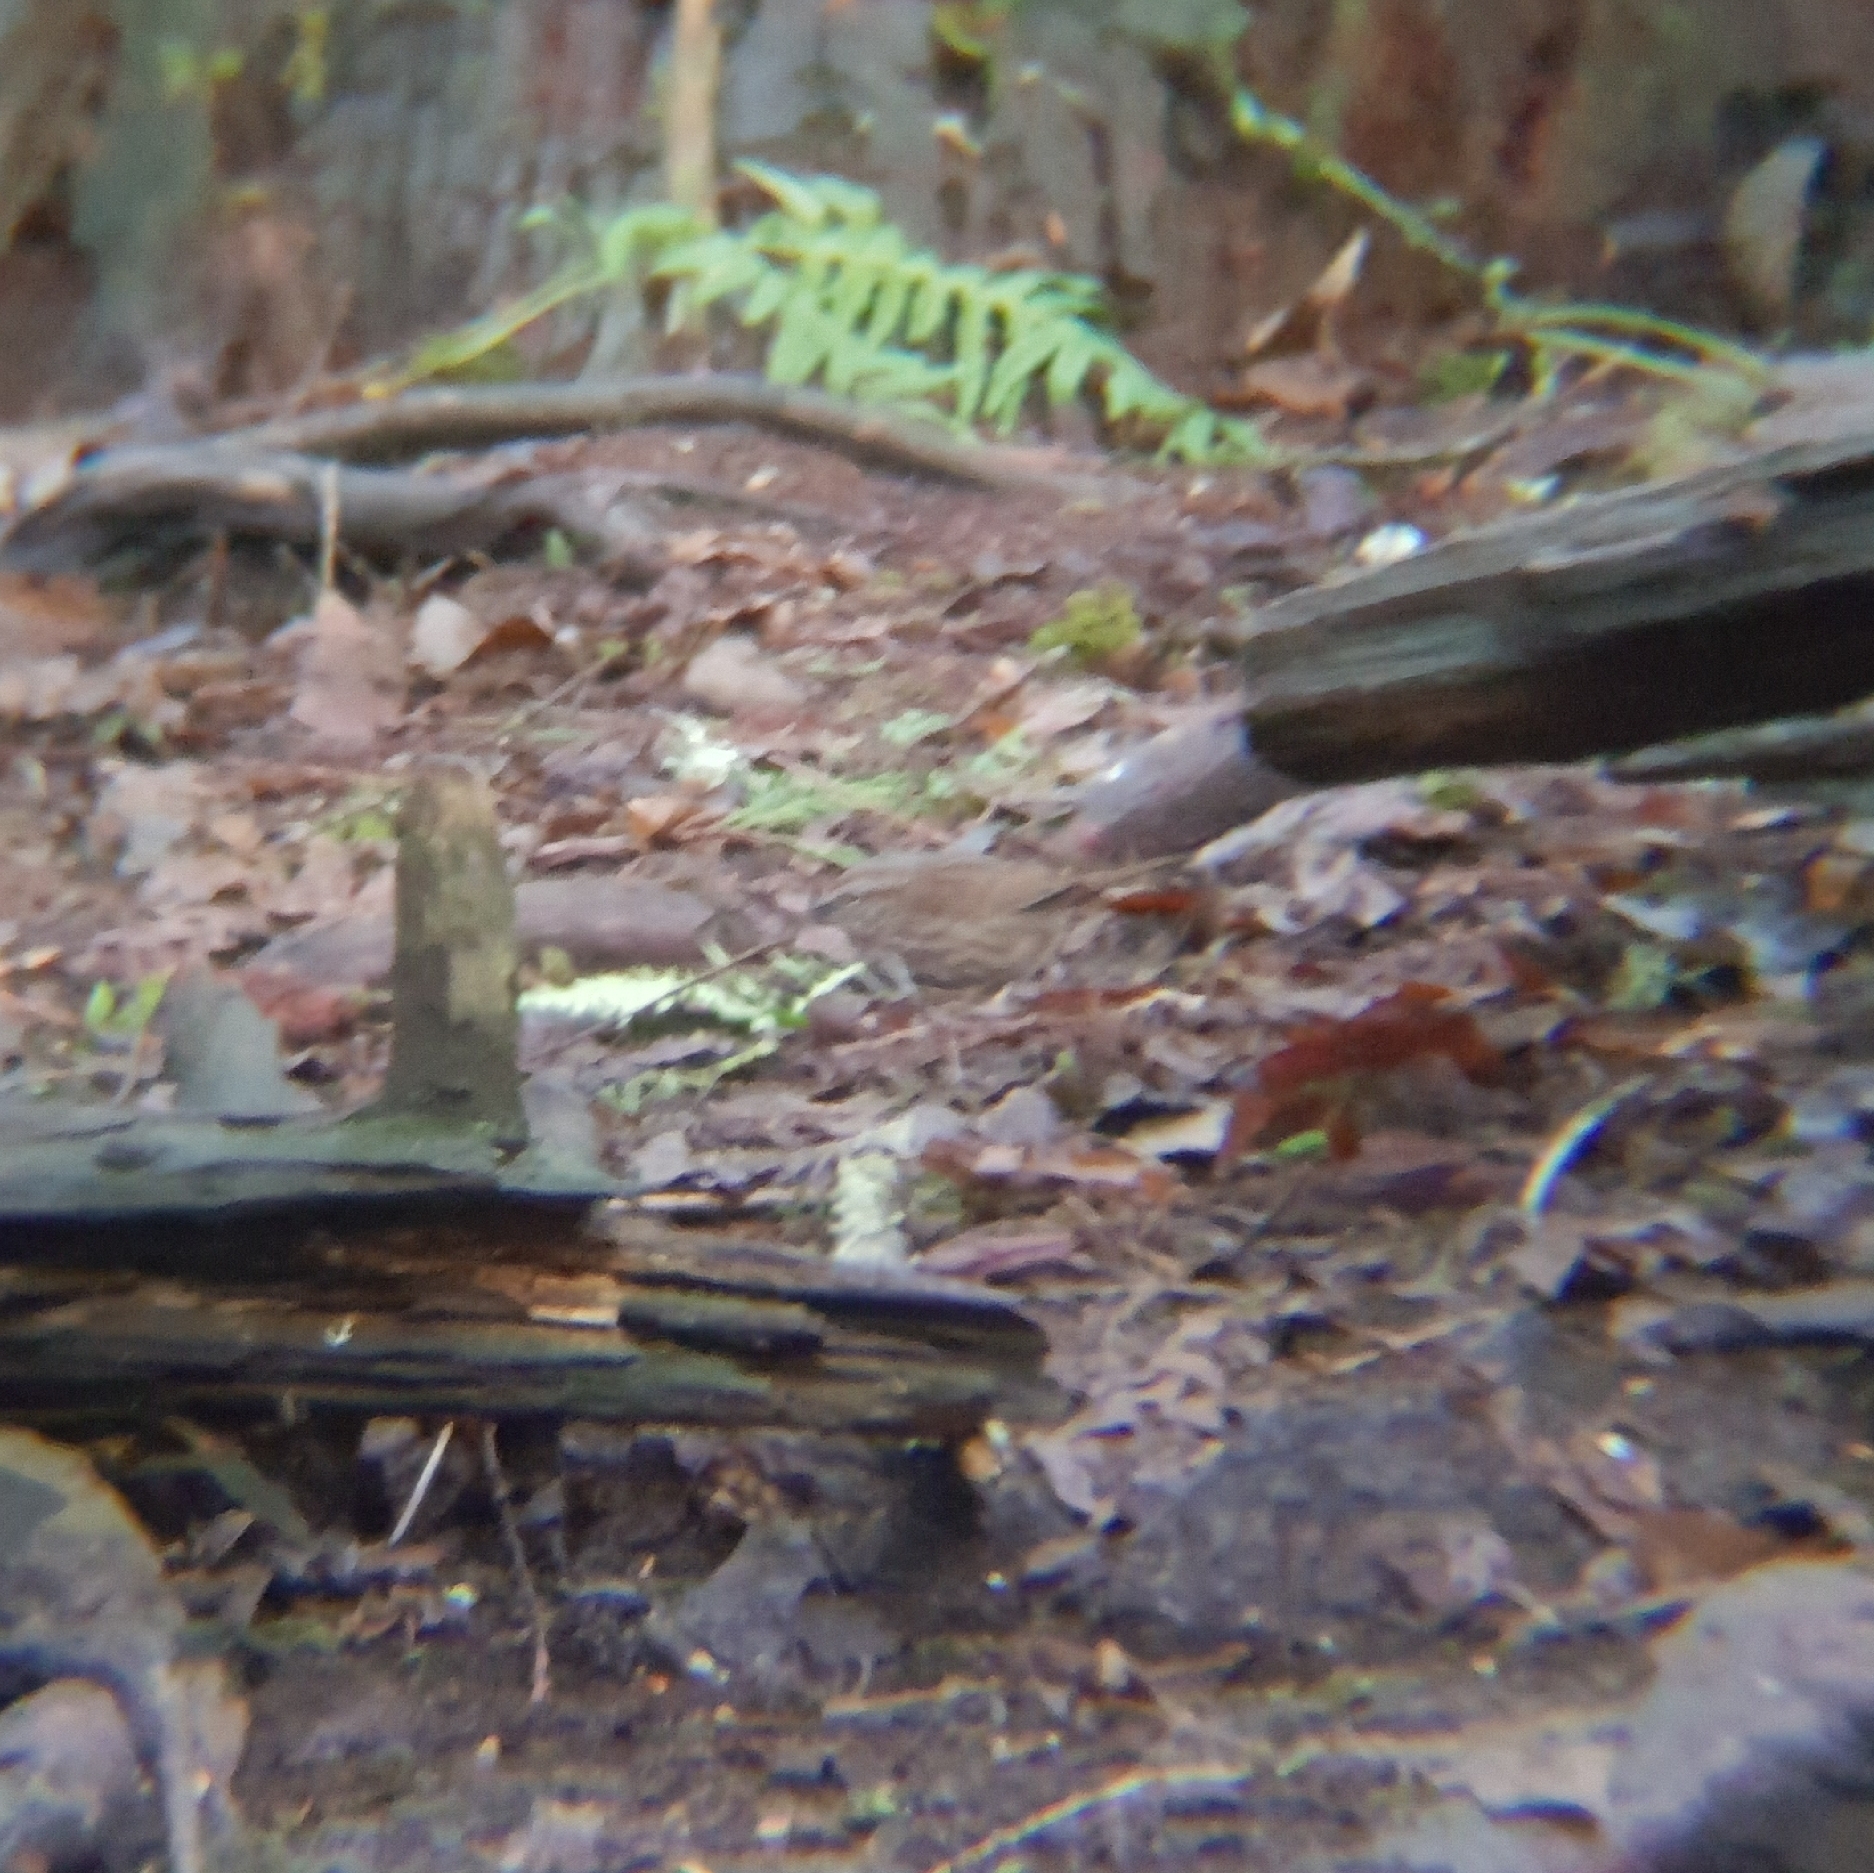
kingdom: Animalia
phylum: Chordata
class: Aves
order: Passeriformes
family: Passerellidae
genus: Melospiza
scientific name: Melospiza melodia
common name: Song sparrow
